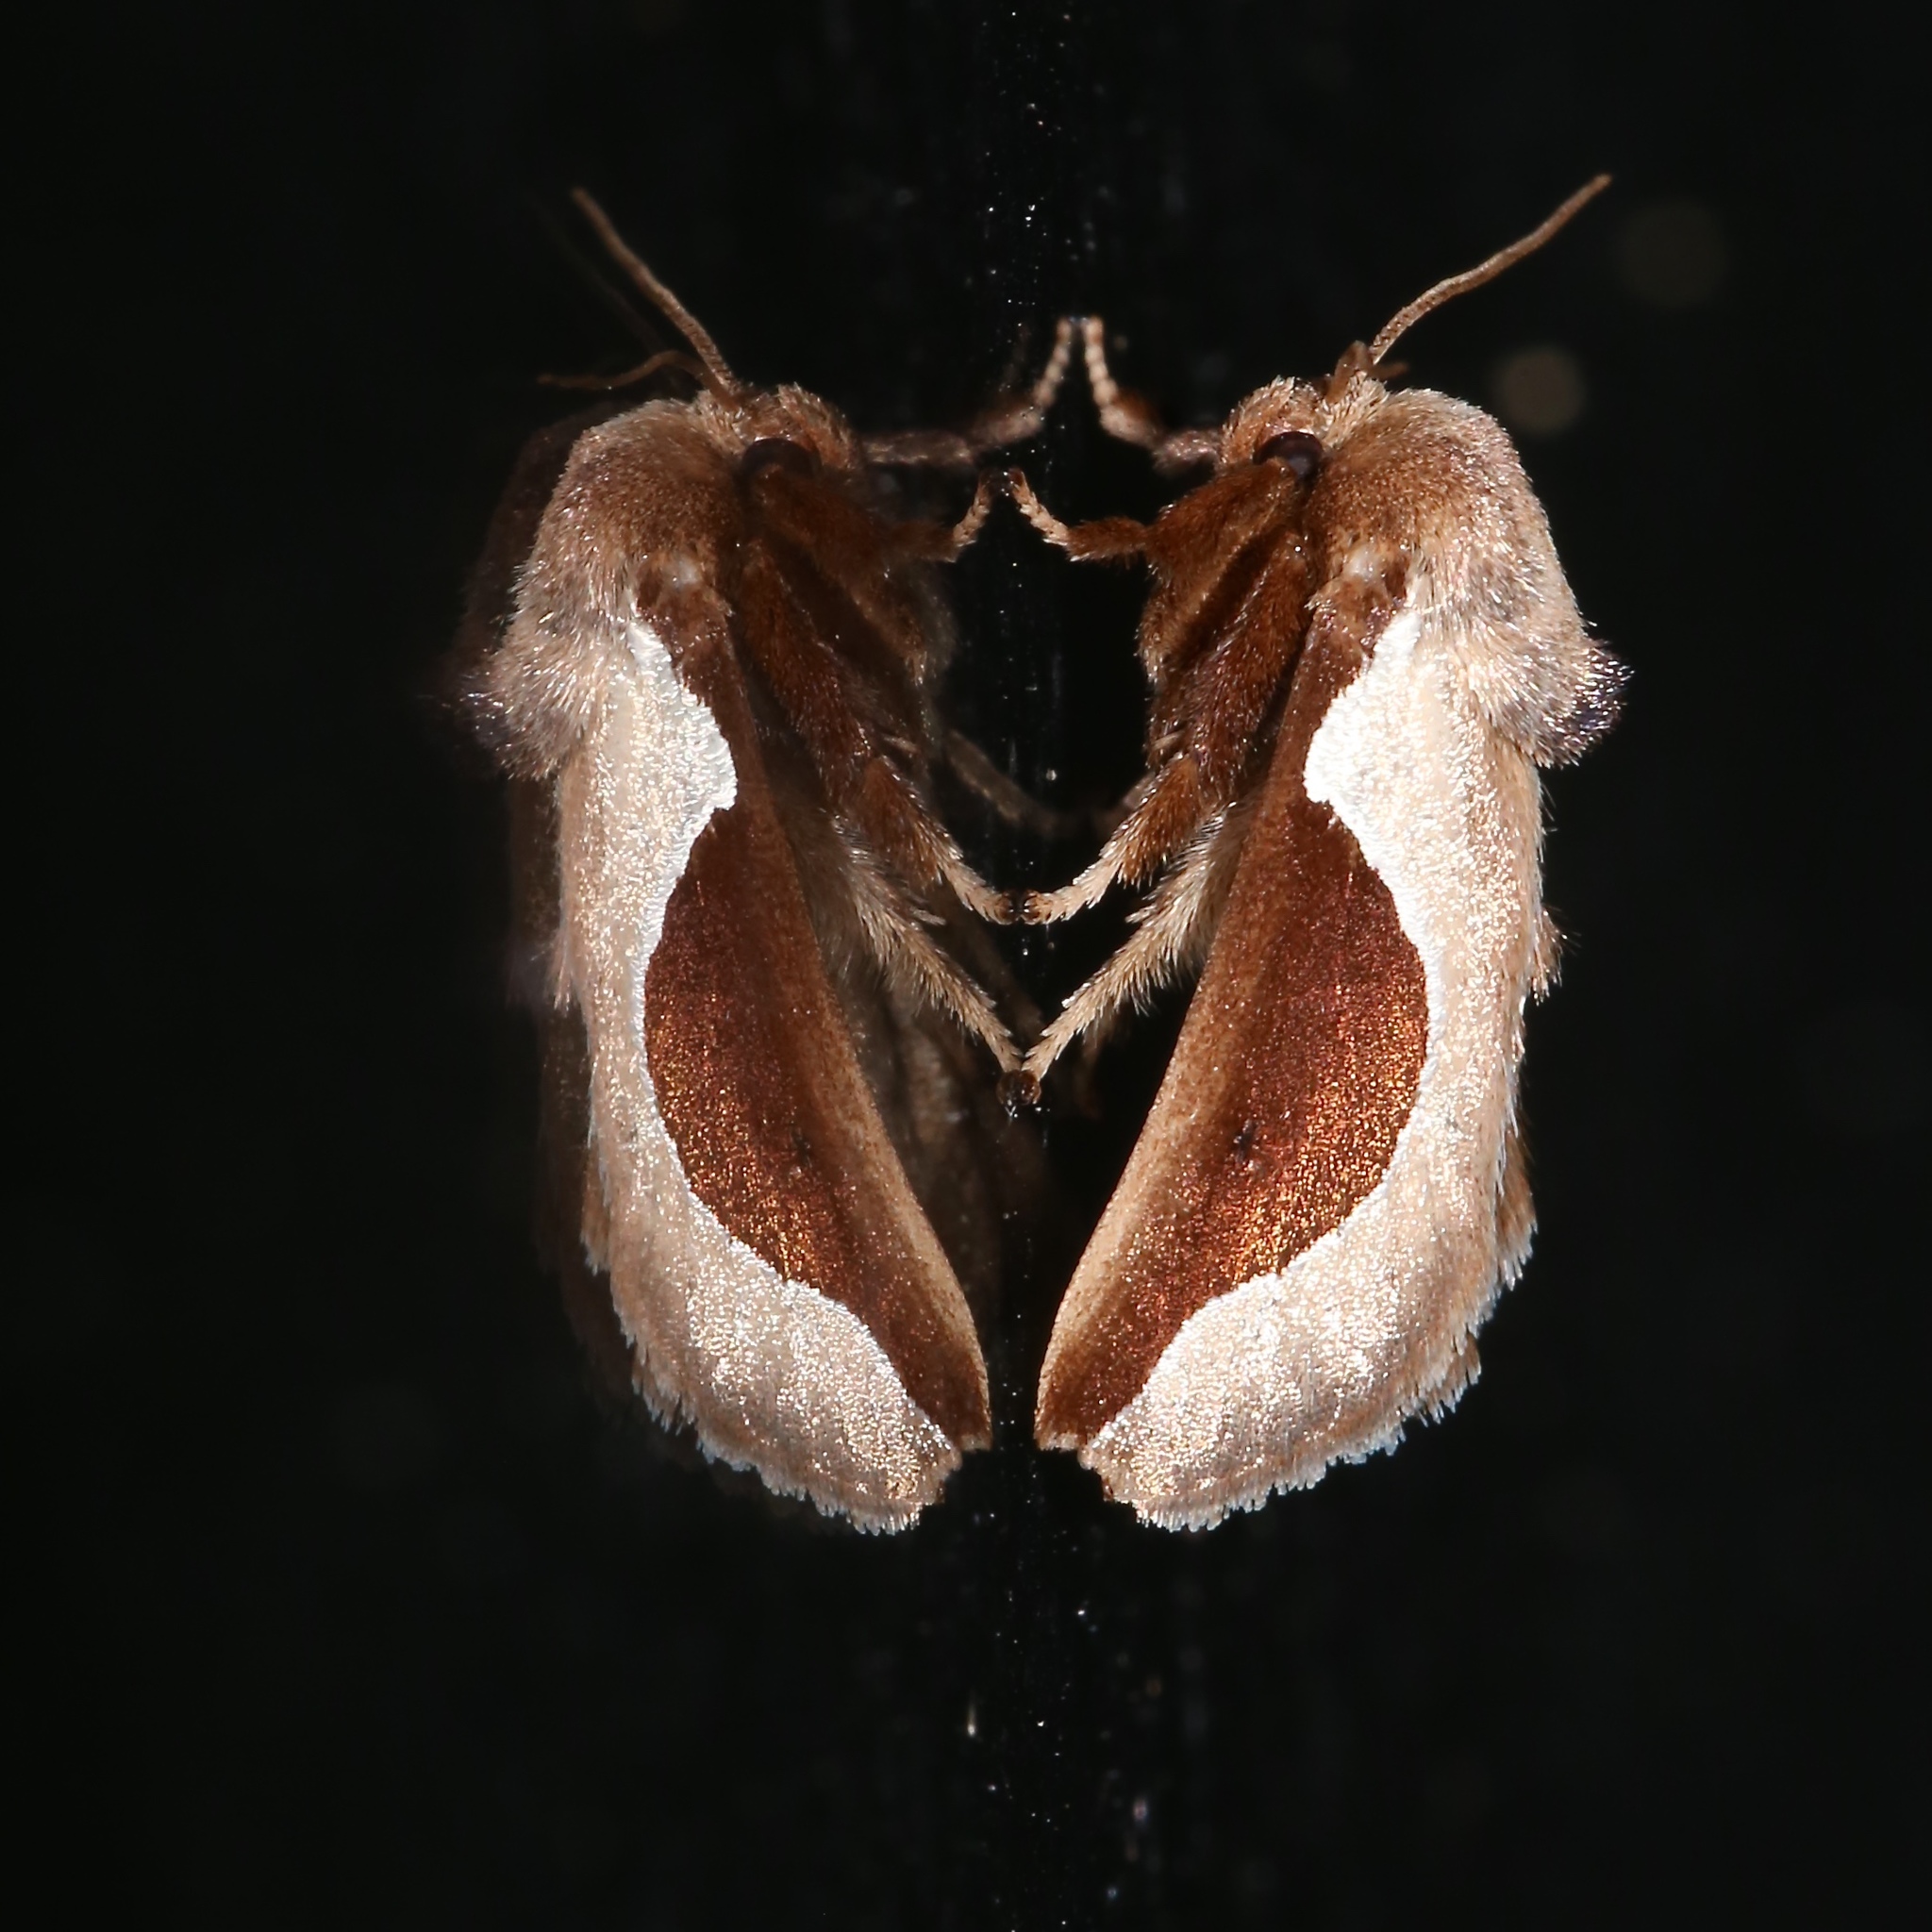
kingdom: Animalia
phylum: Arthropoda
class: Insecta
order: Lepidoptera
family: Limacodidae
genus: Prolimacodes
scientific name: Prolimacodes badia
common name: Skiff moth
